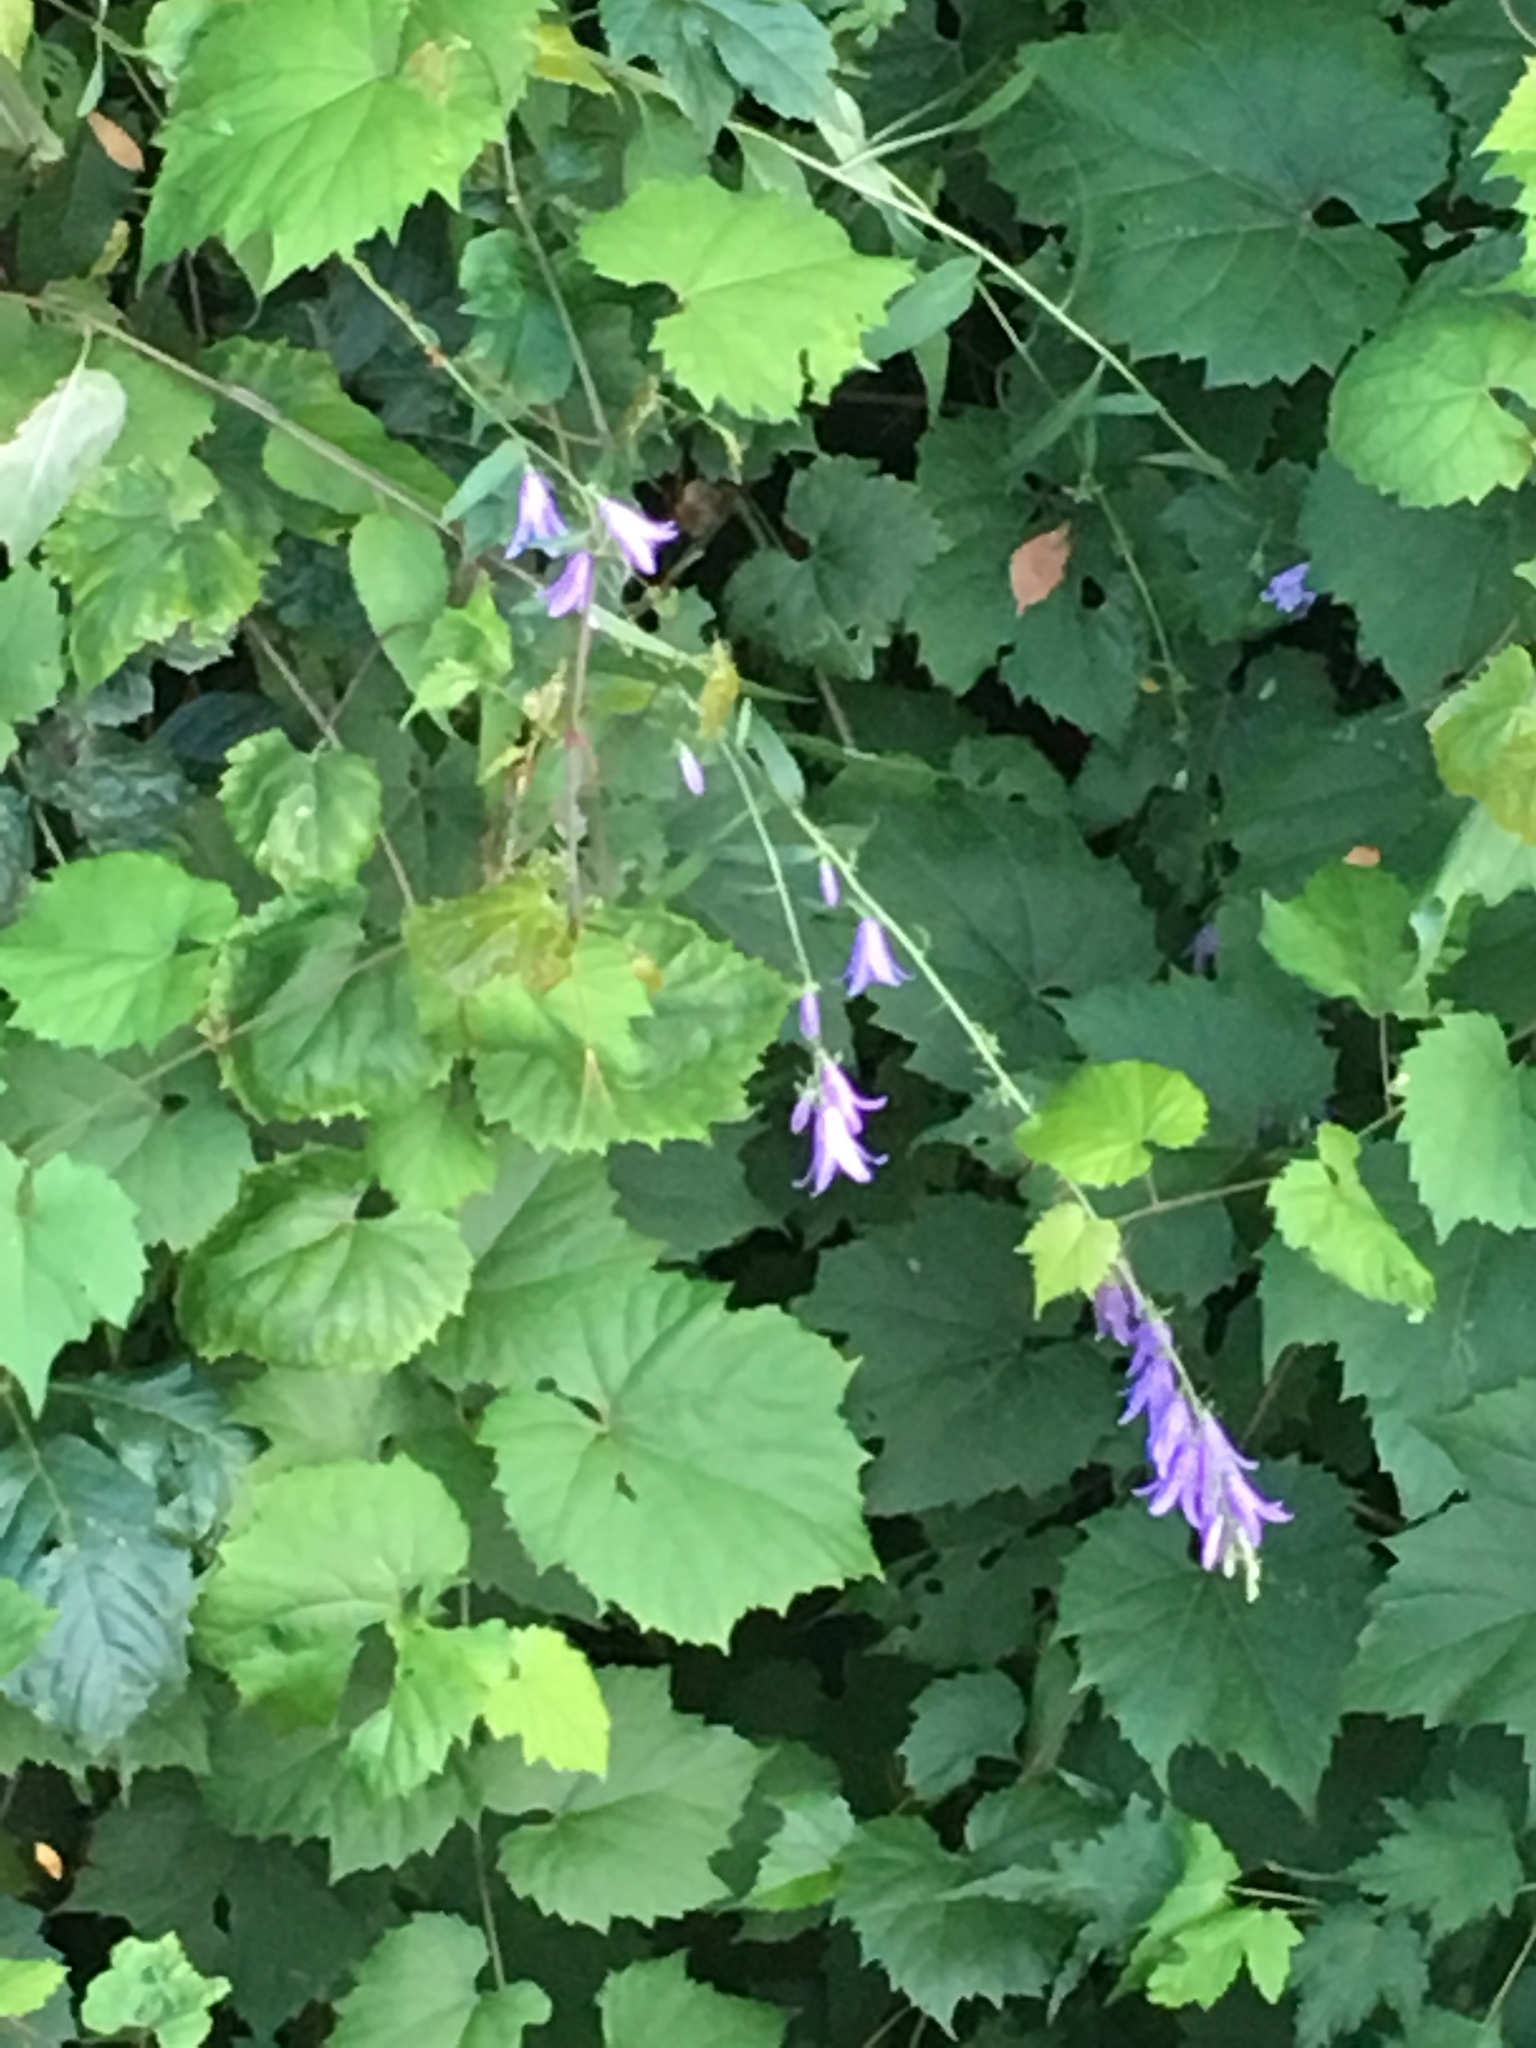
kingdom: Plantae
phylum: Tracheophyta
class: Magnoliopsida
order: Asterales
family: Campanulaceae
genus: Campanula
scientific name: Campanula rapunculoides
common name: Creeping bellflower
